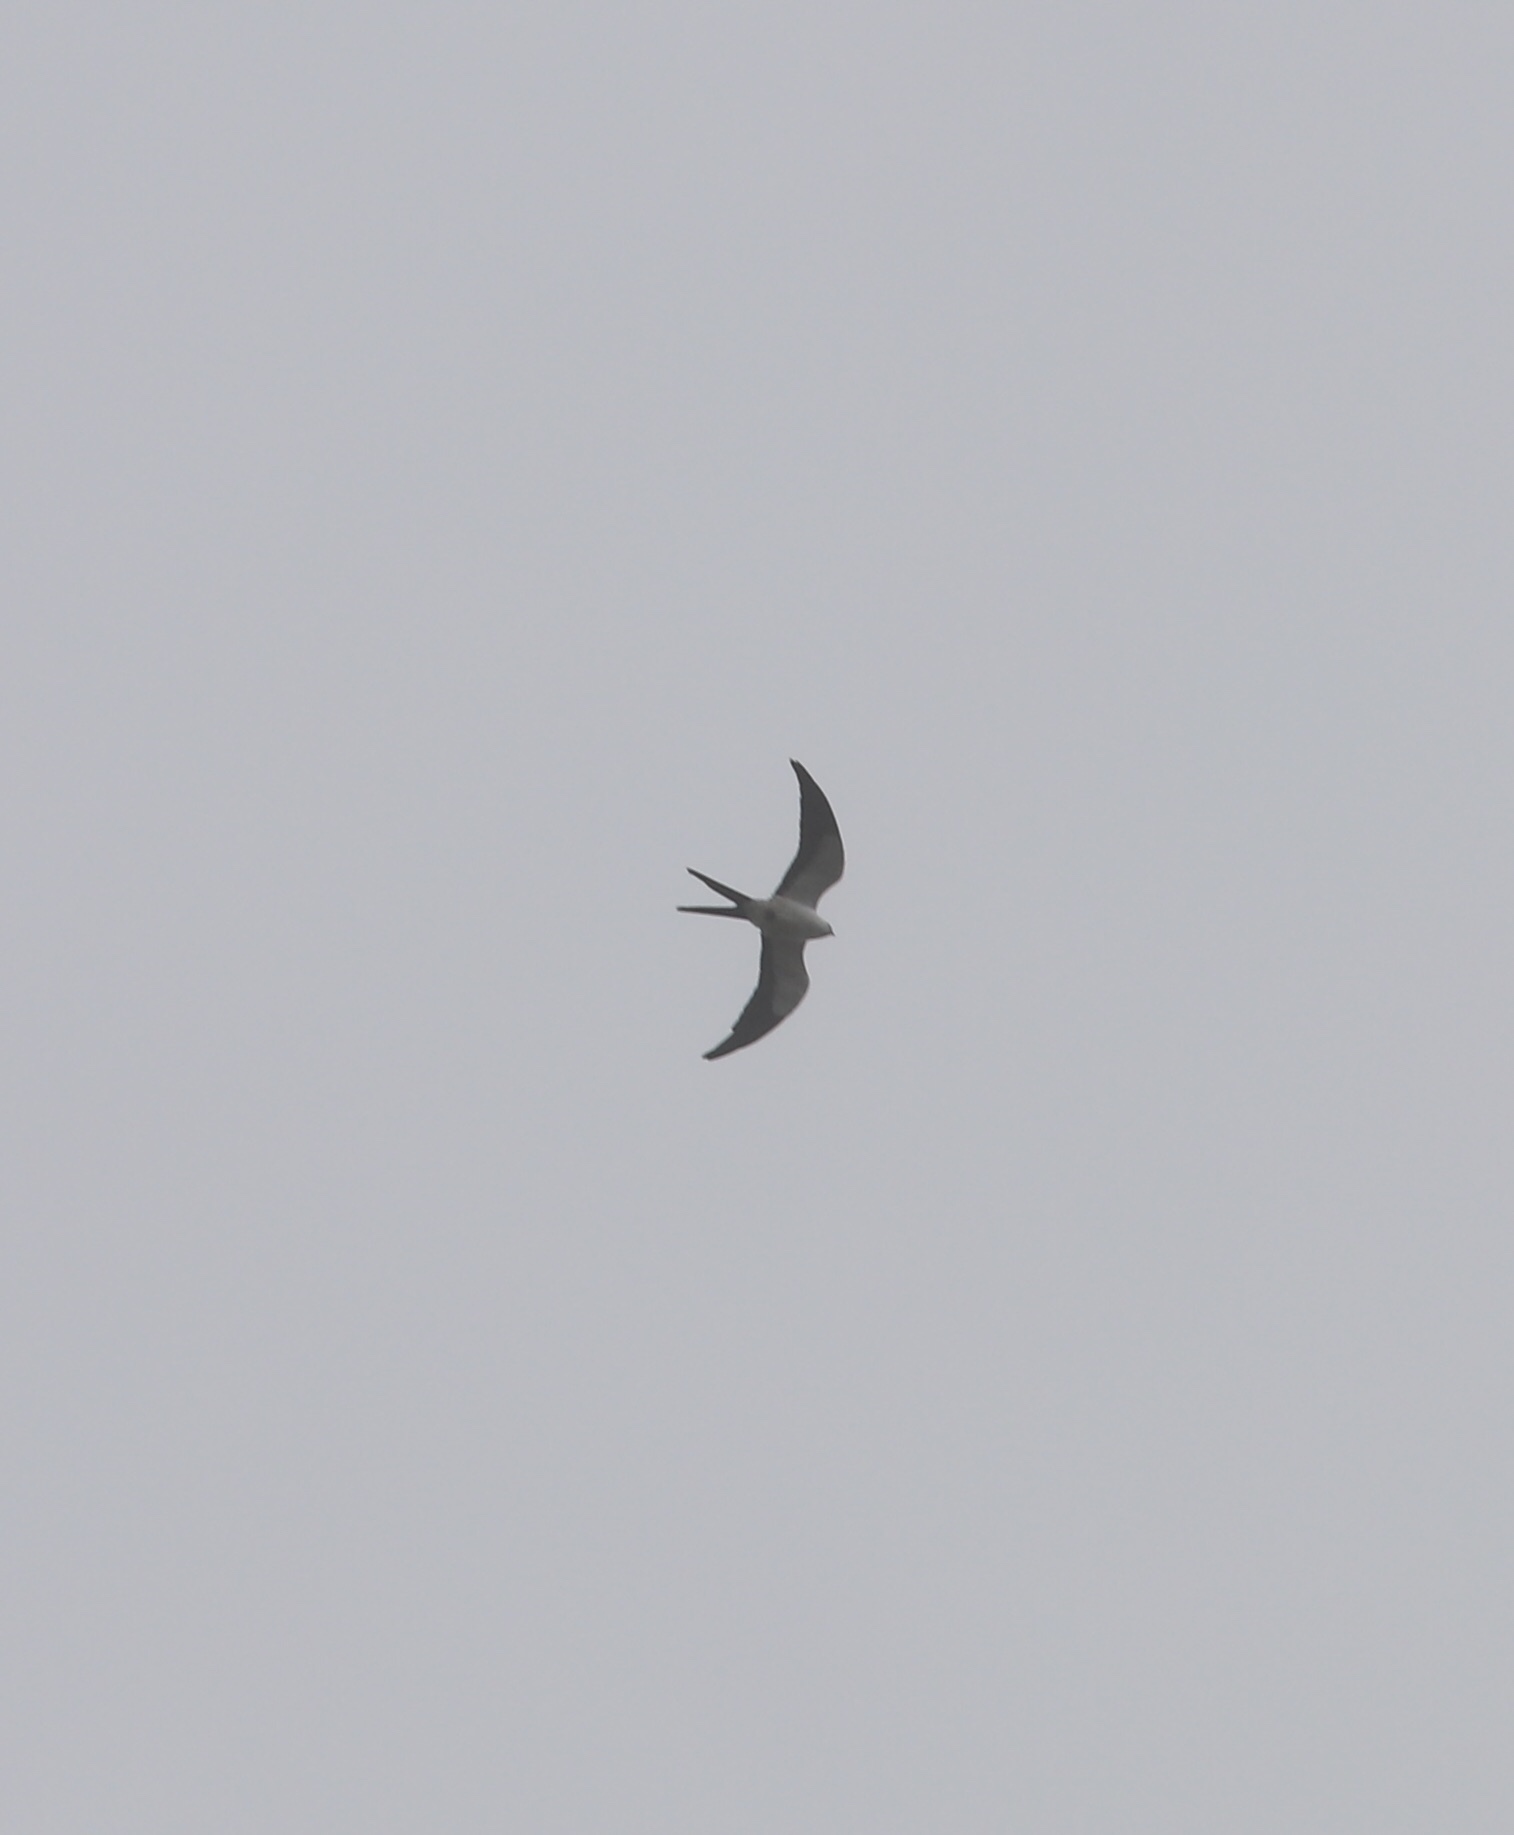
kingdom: Animalia
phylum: Chordata
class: Aves
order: Accipitriformes
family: Accipitridae
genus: Elanoides
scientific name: Elanoides forficatus
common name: Swallow-tailed kite
